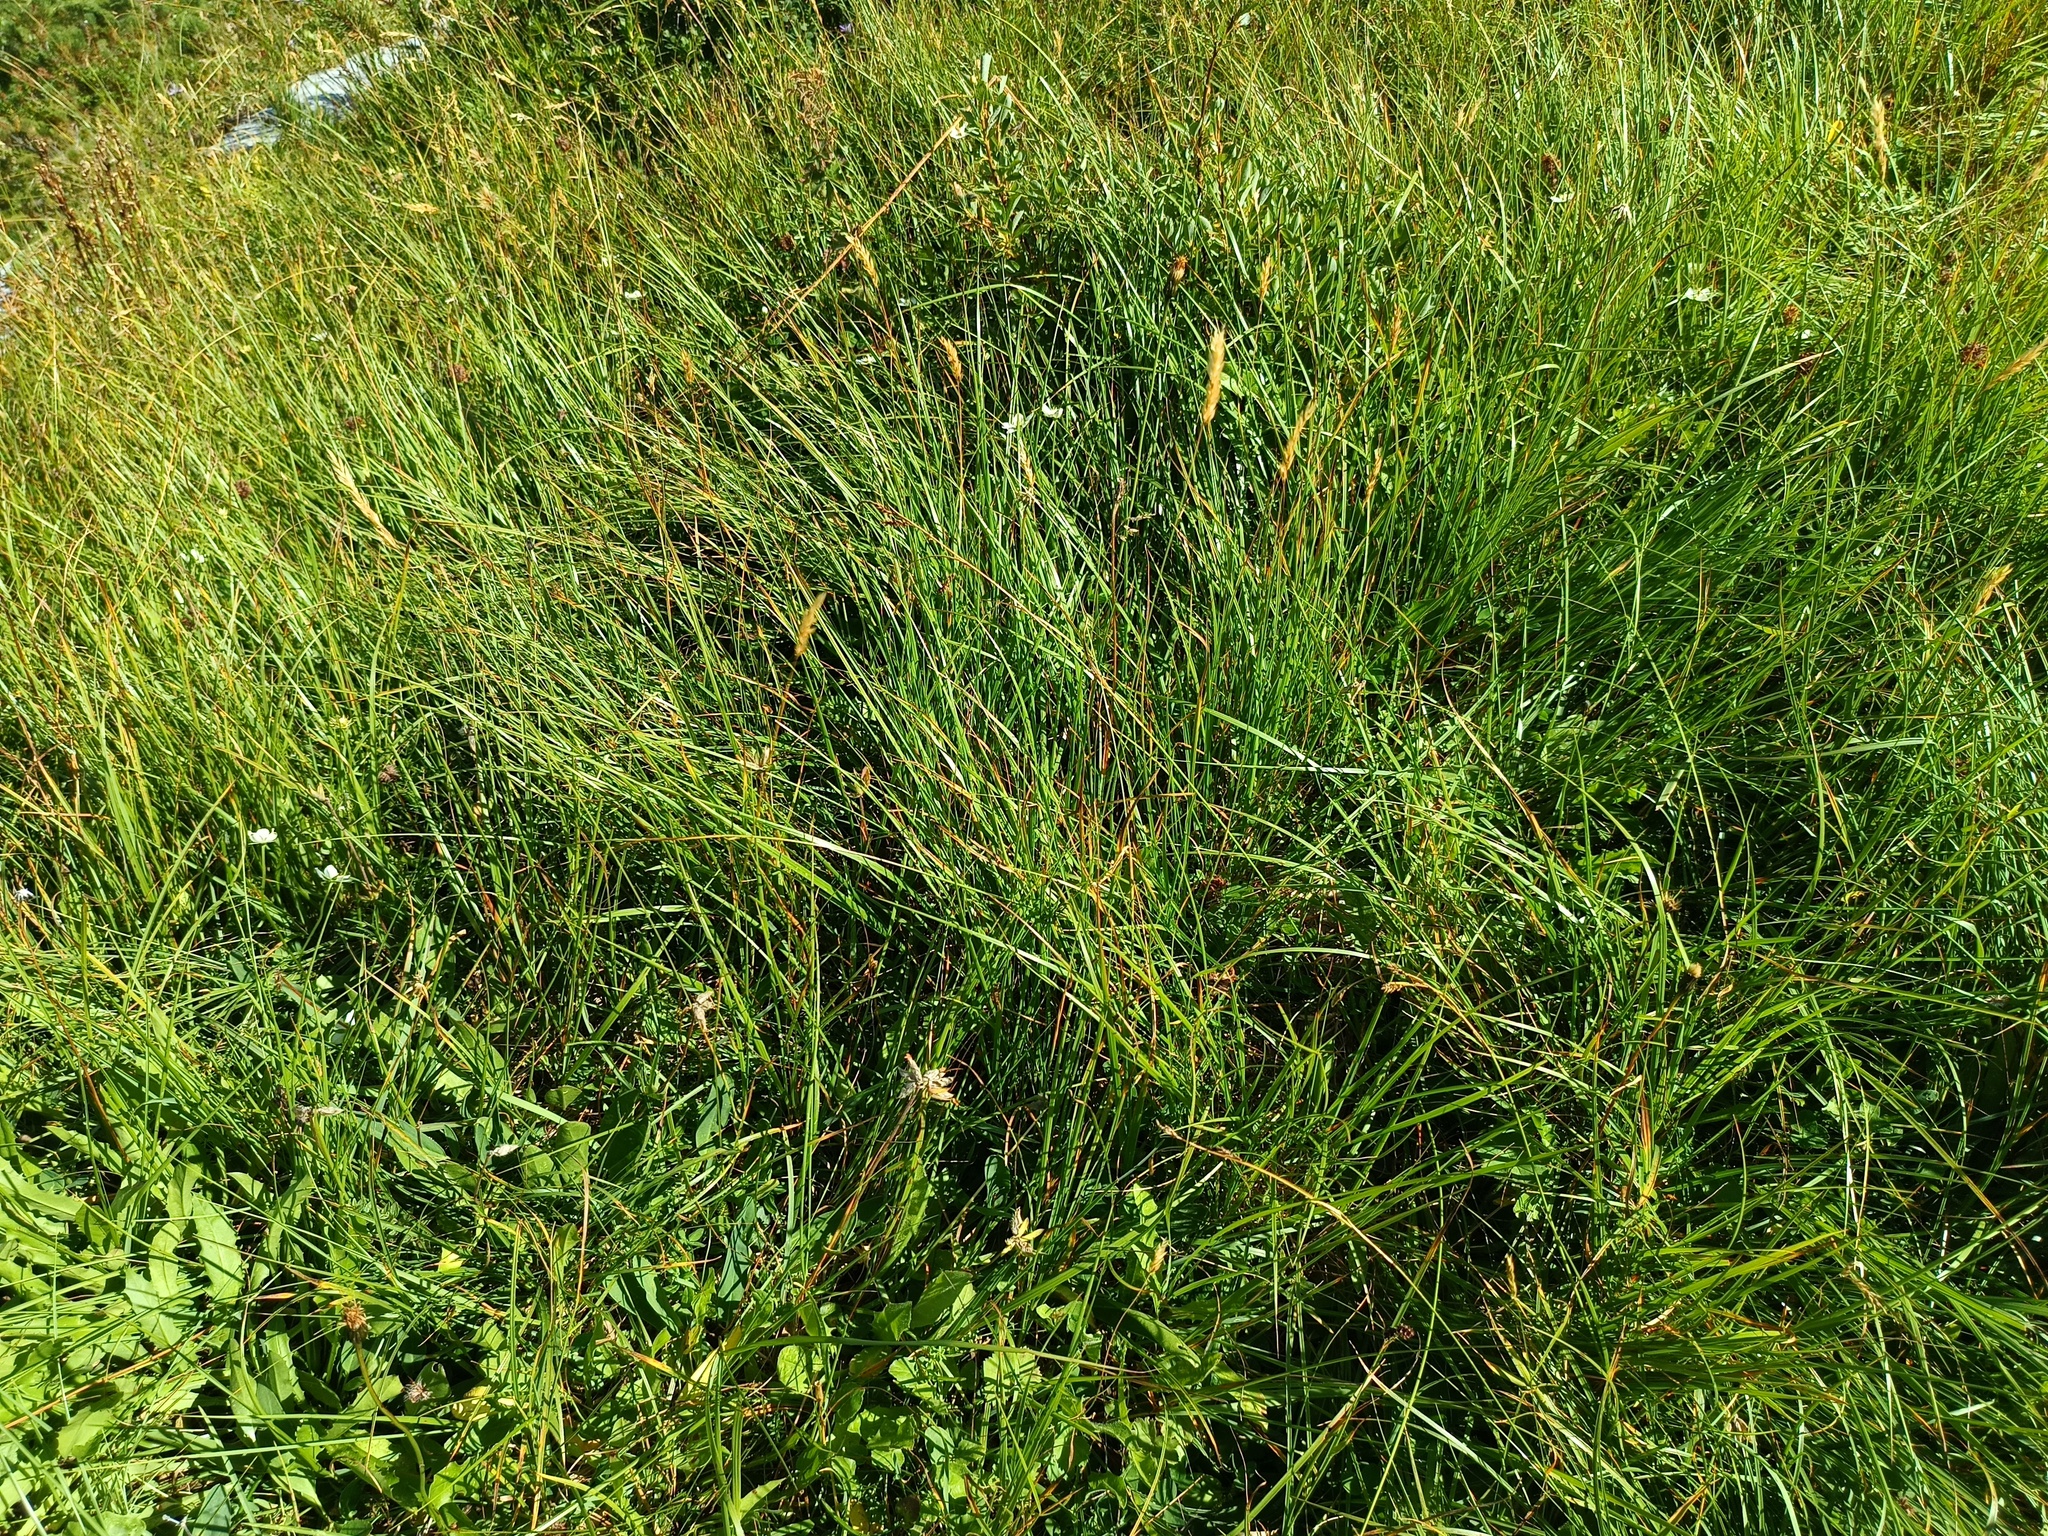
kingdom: Plantae
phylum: Tracheophyta
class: Liliopsida
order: Poales
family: Poaceae
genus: Anthoxanthum
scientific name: Anthoxanthum odoratum
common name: Sweet vernalgrass
